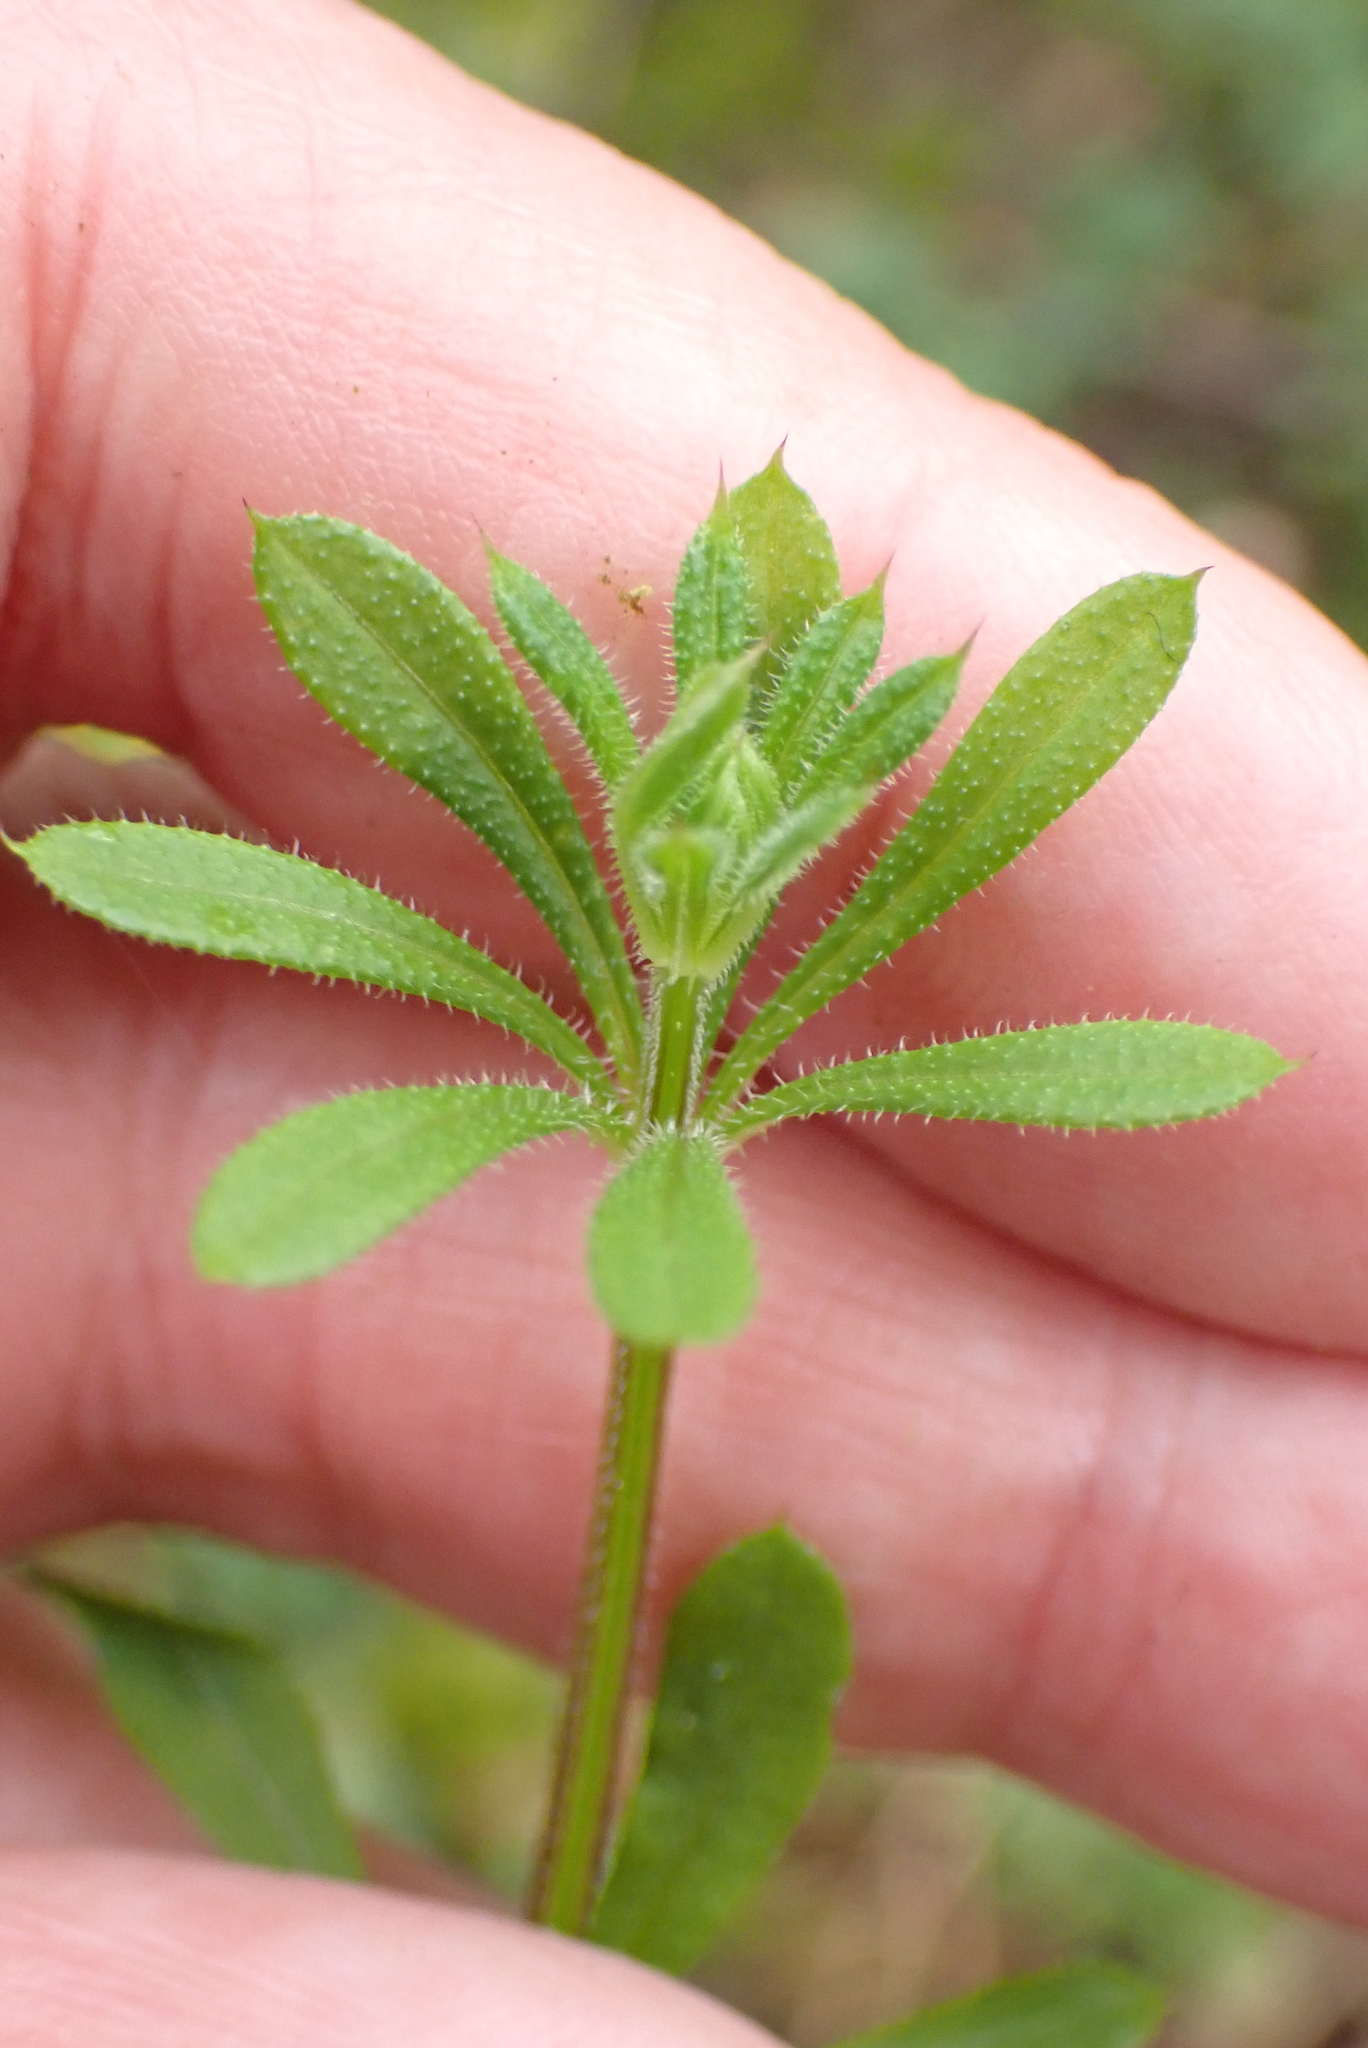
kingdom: Plantae
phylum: Tracheophyta
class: Magnoliopsida
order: Gentianales
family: Rubiaceae
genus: Galium
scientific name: Galium aparine
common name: Cleavers
